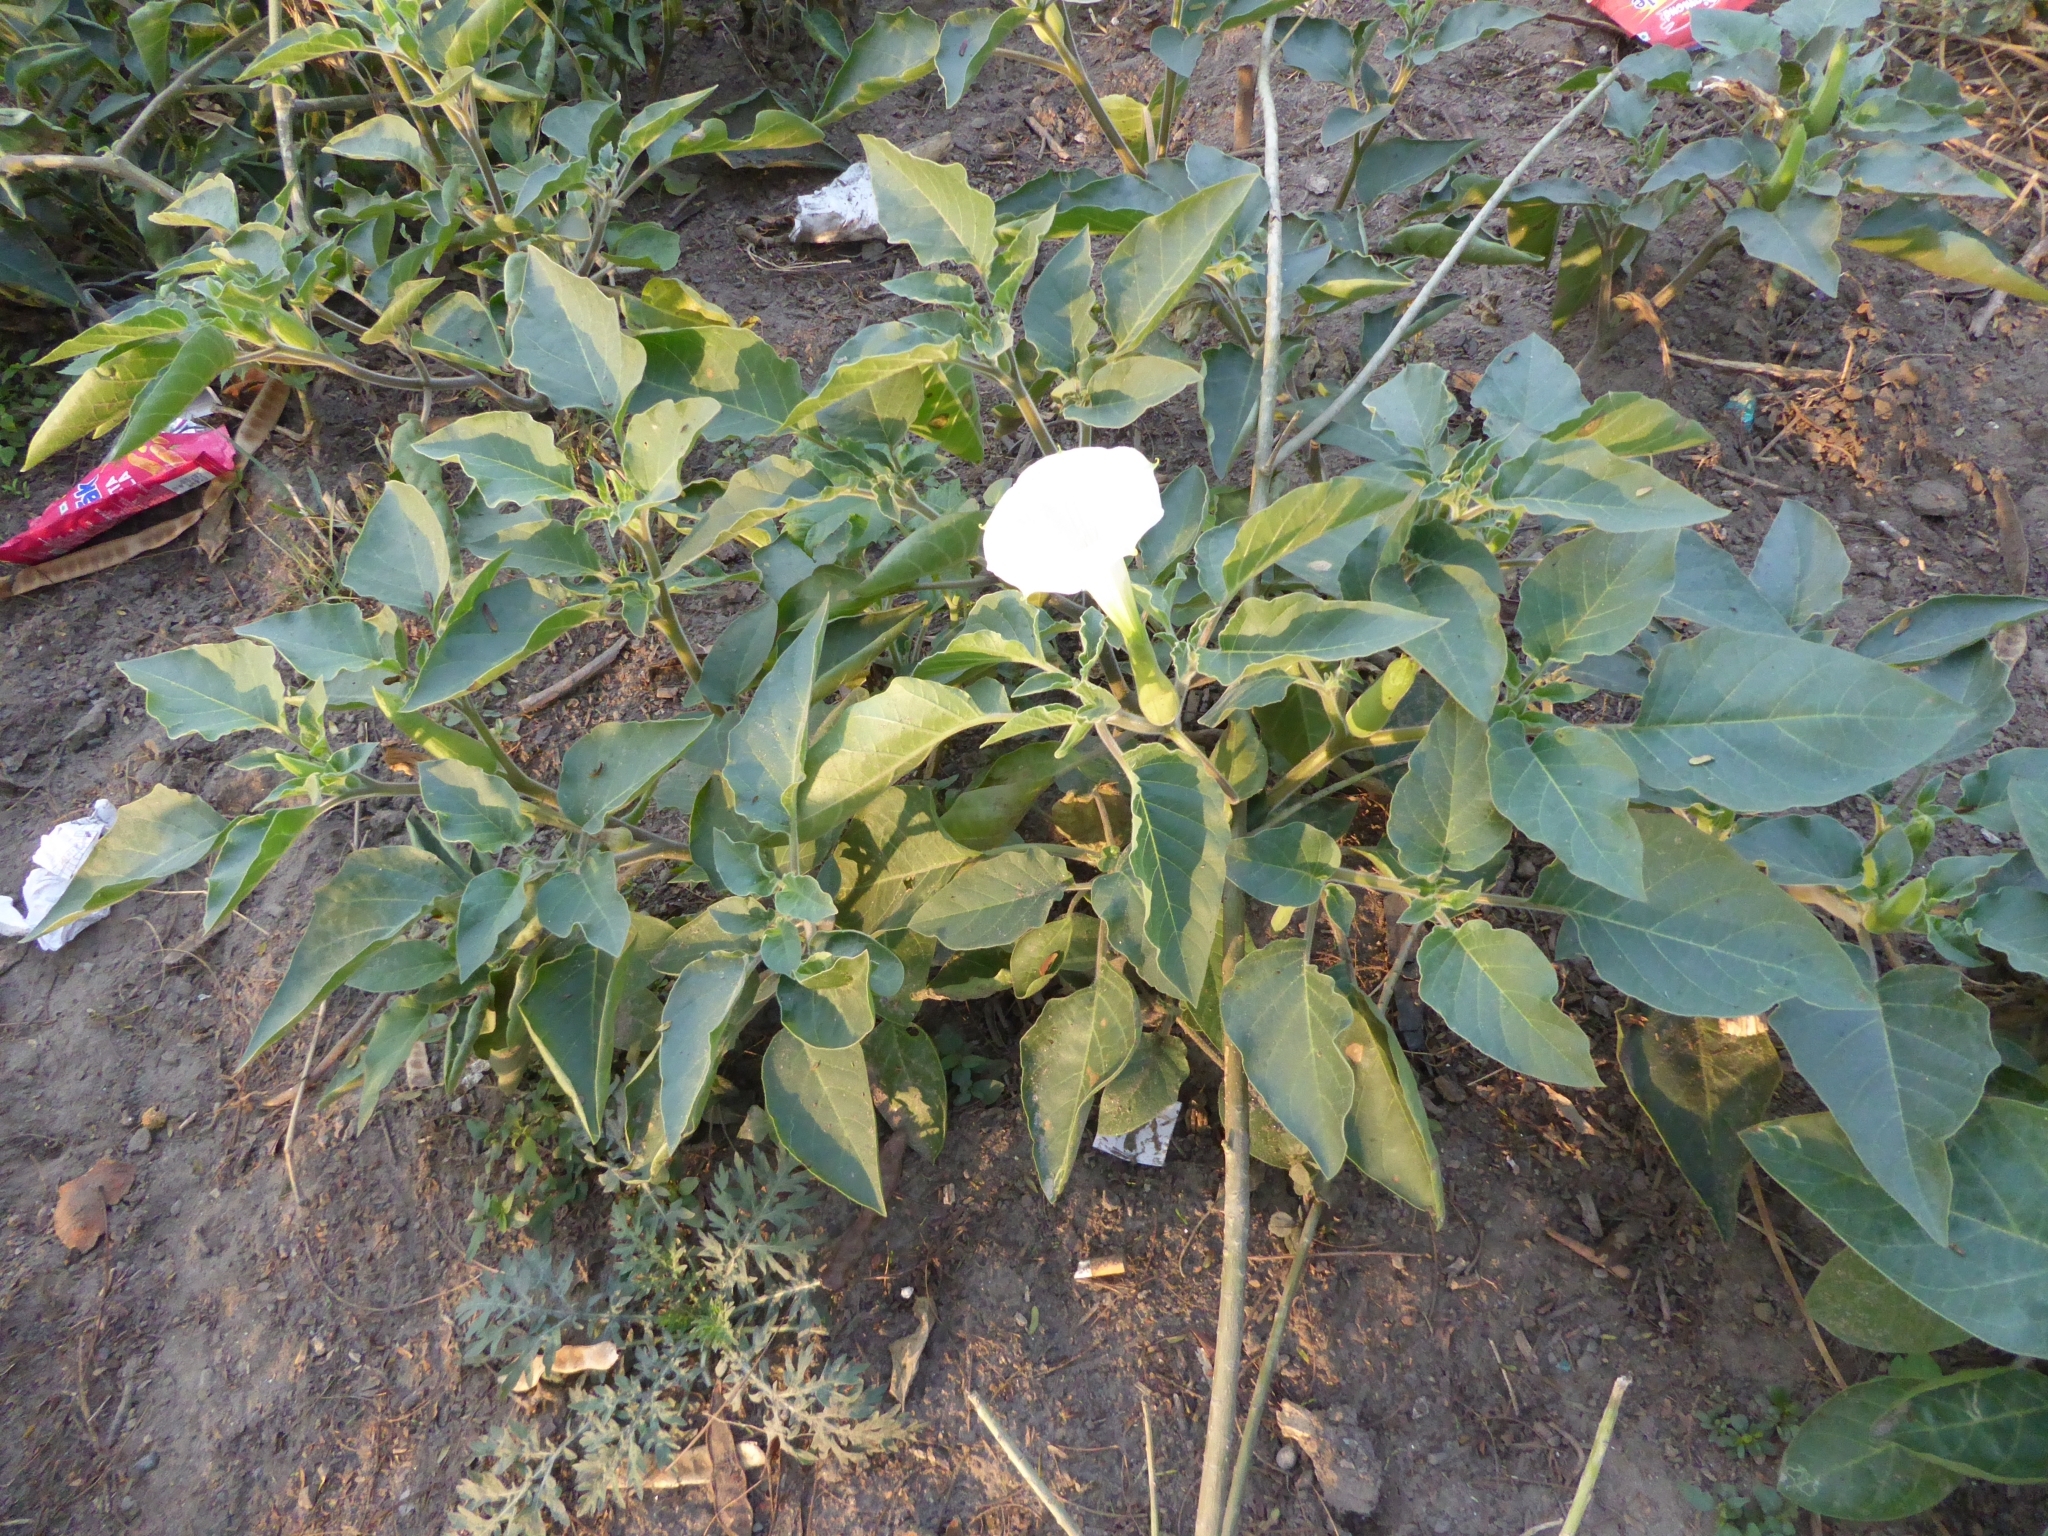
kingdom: Plantae
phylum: Tracheophyta
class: Magnoliopsida
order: Solanales
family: Solanaceae
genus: Datura
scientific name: Datura innoxia
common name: Downy thorn-apple
